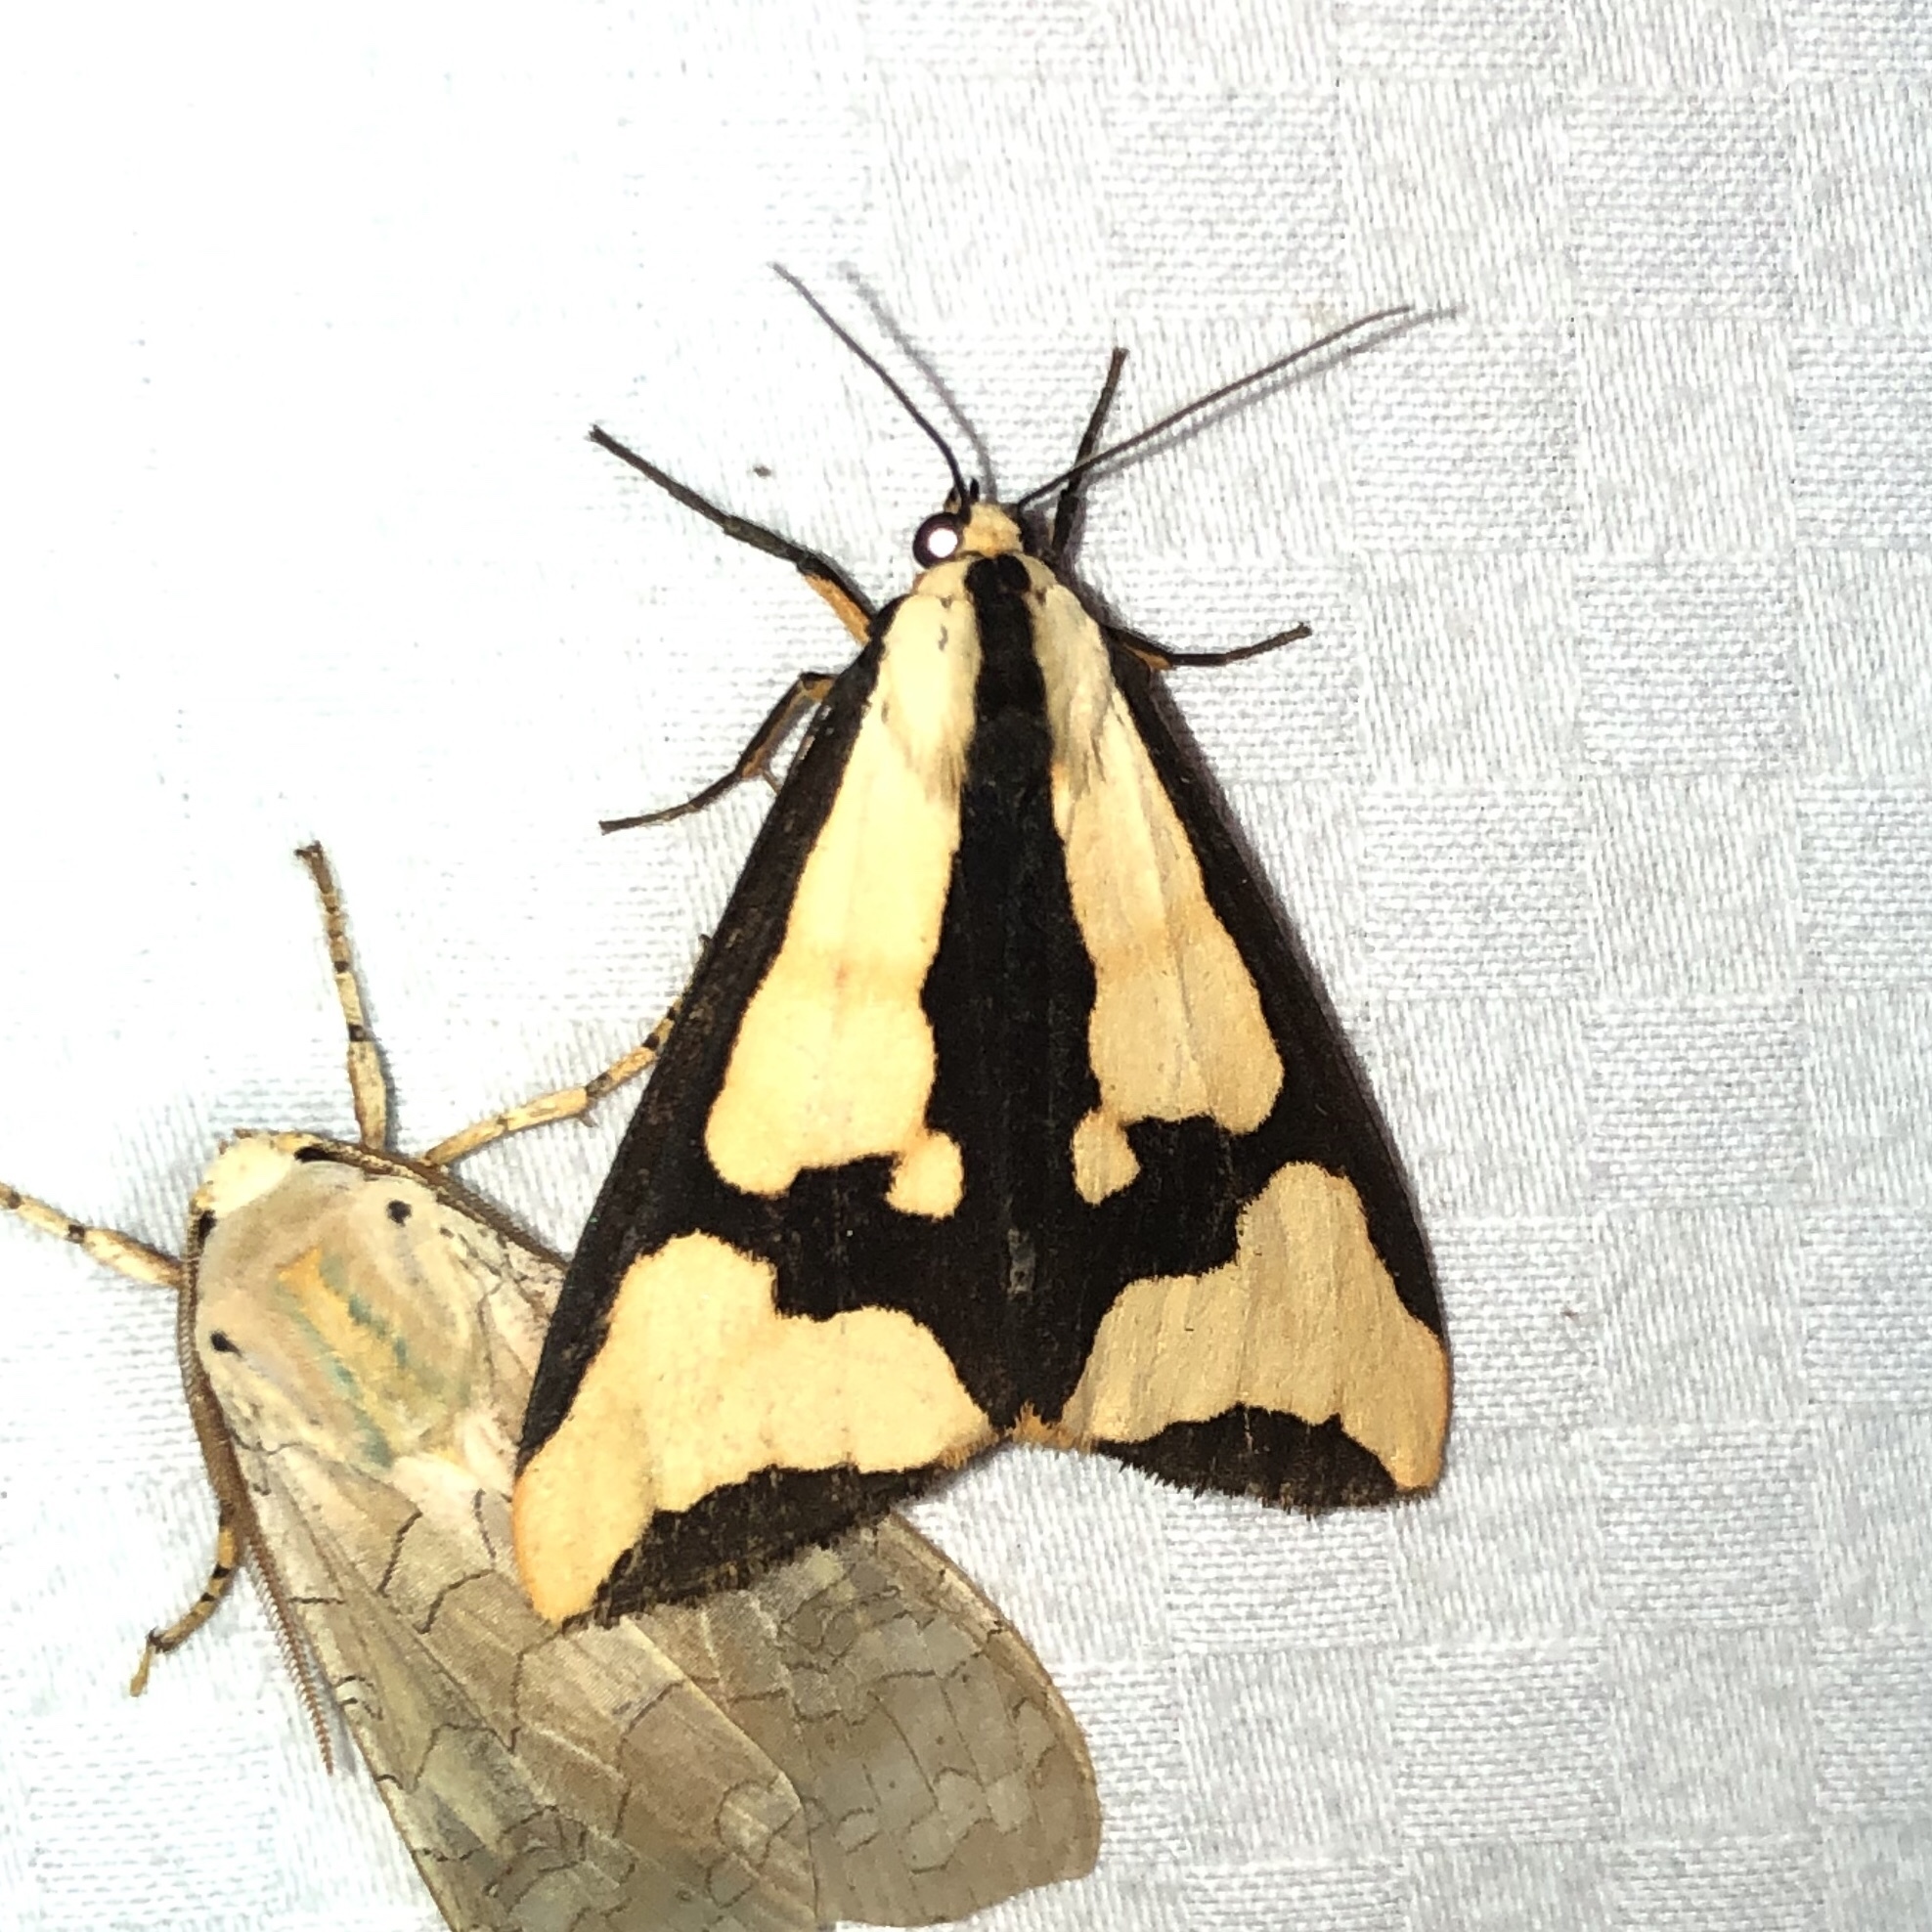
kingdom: Animalia
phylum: Arthropoda
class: Insecta
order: Lepidoptera
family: Erebidae
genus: Haploa
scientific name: Haploa clymene
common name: Clymene moth
